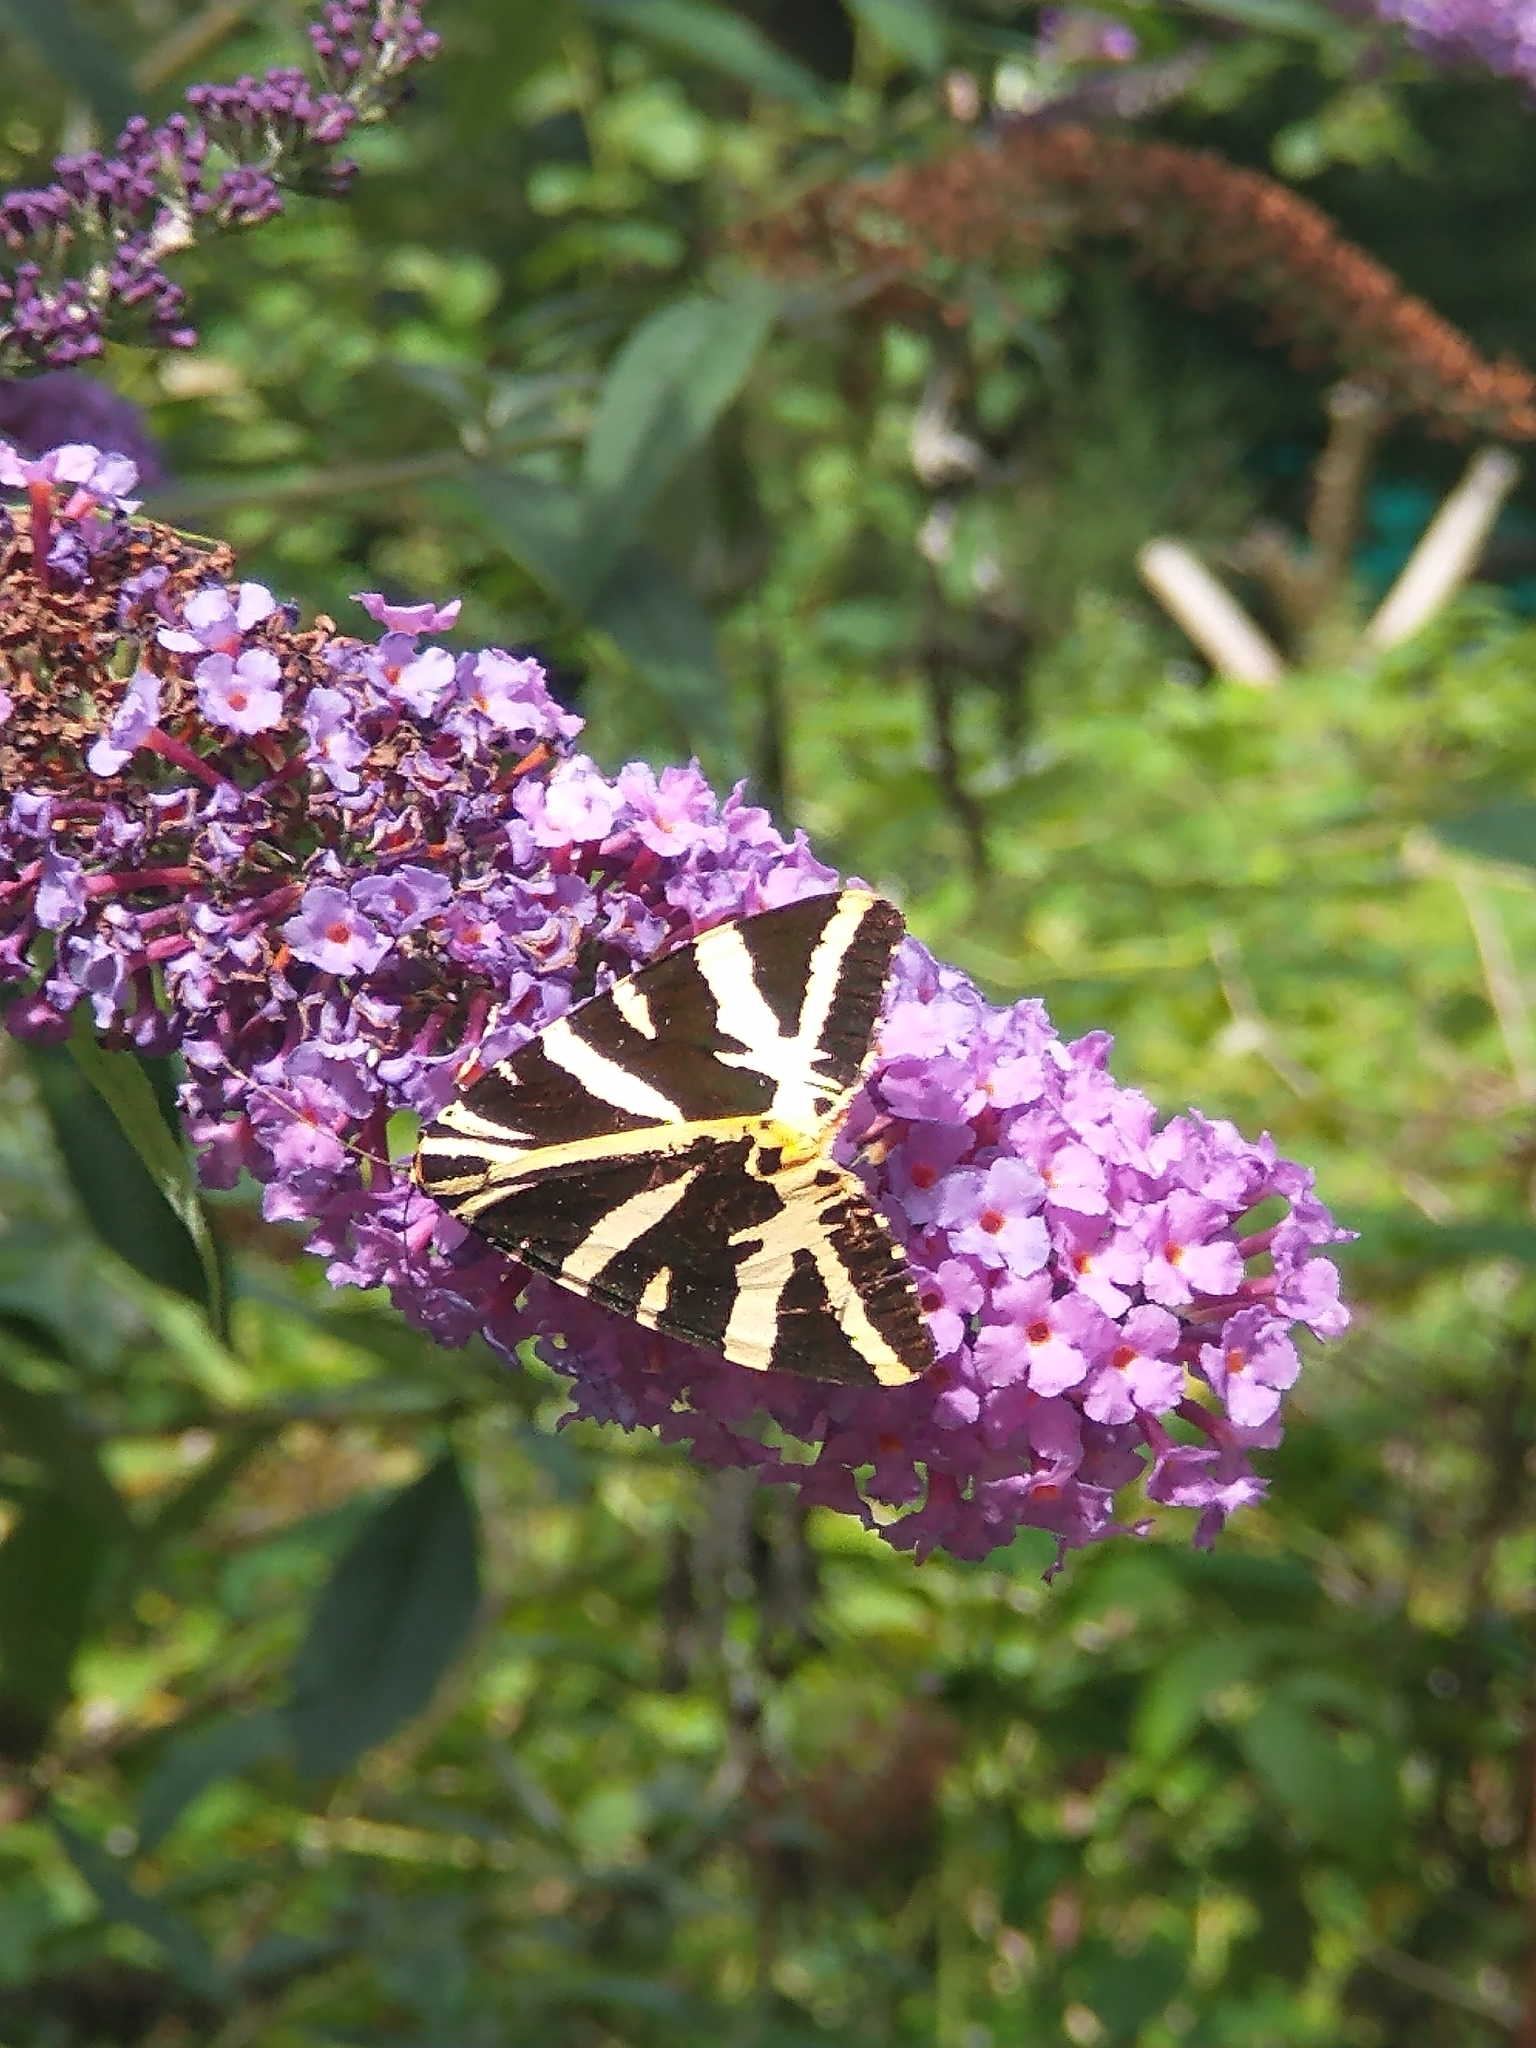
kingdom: Animalia
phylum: Arthropoda
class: Insecta
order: Lepidoptera
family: Erebidae
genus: Euplagia
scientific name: Euplagia quadripunctaria
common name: Jersey tiger
